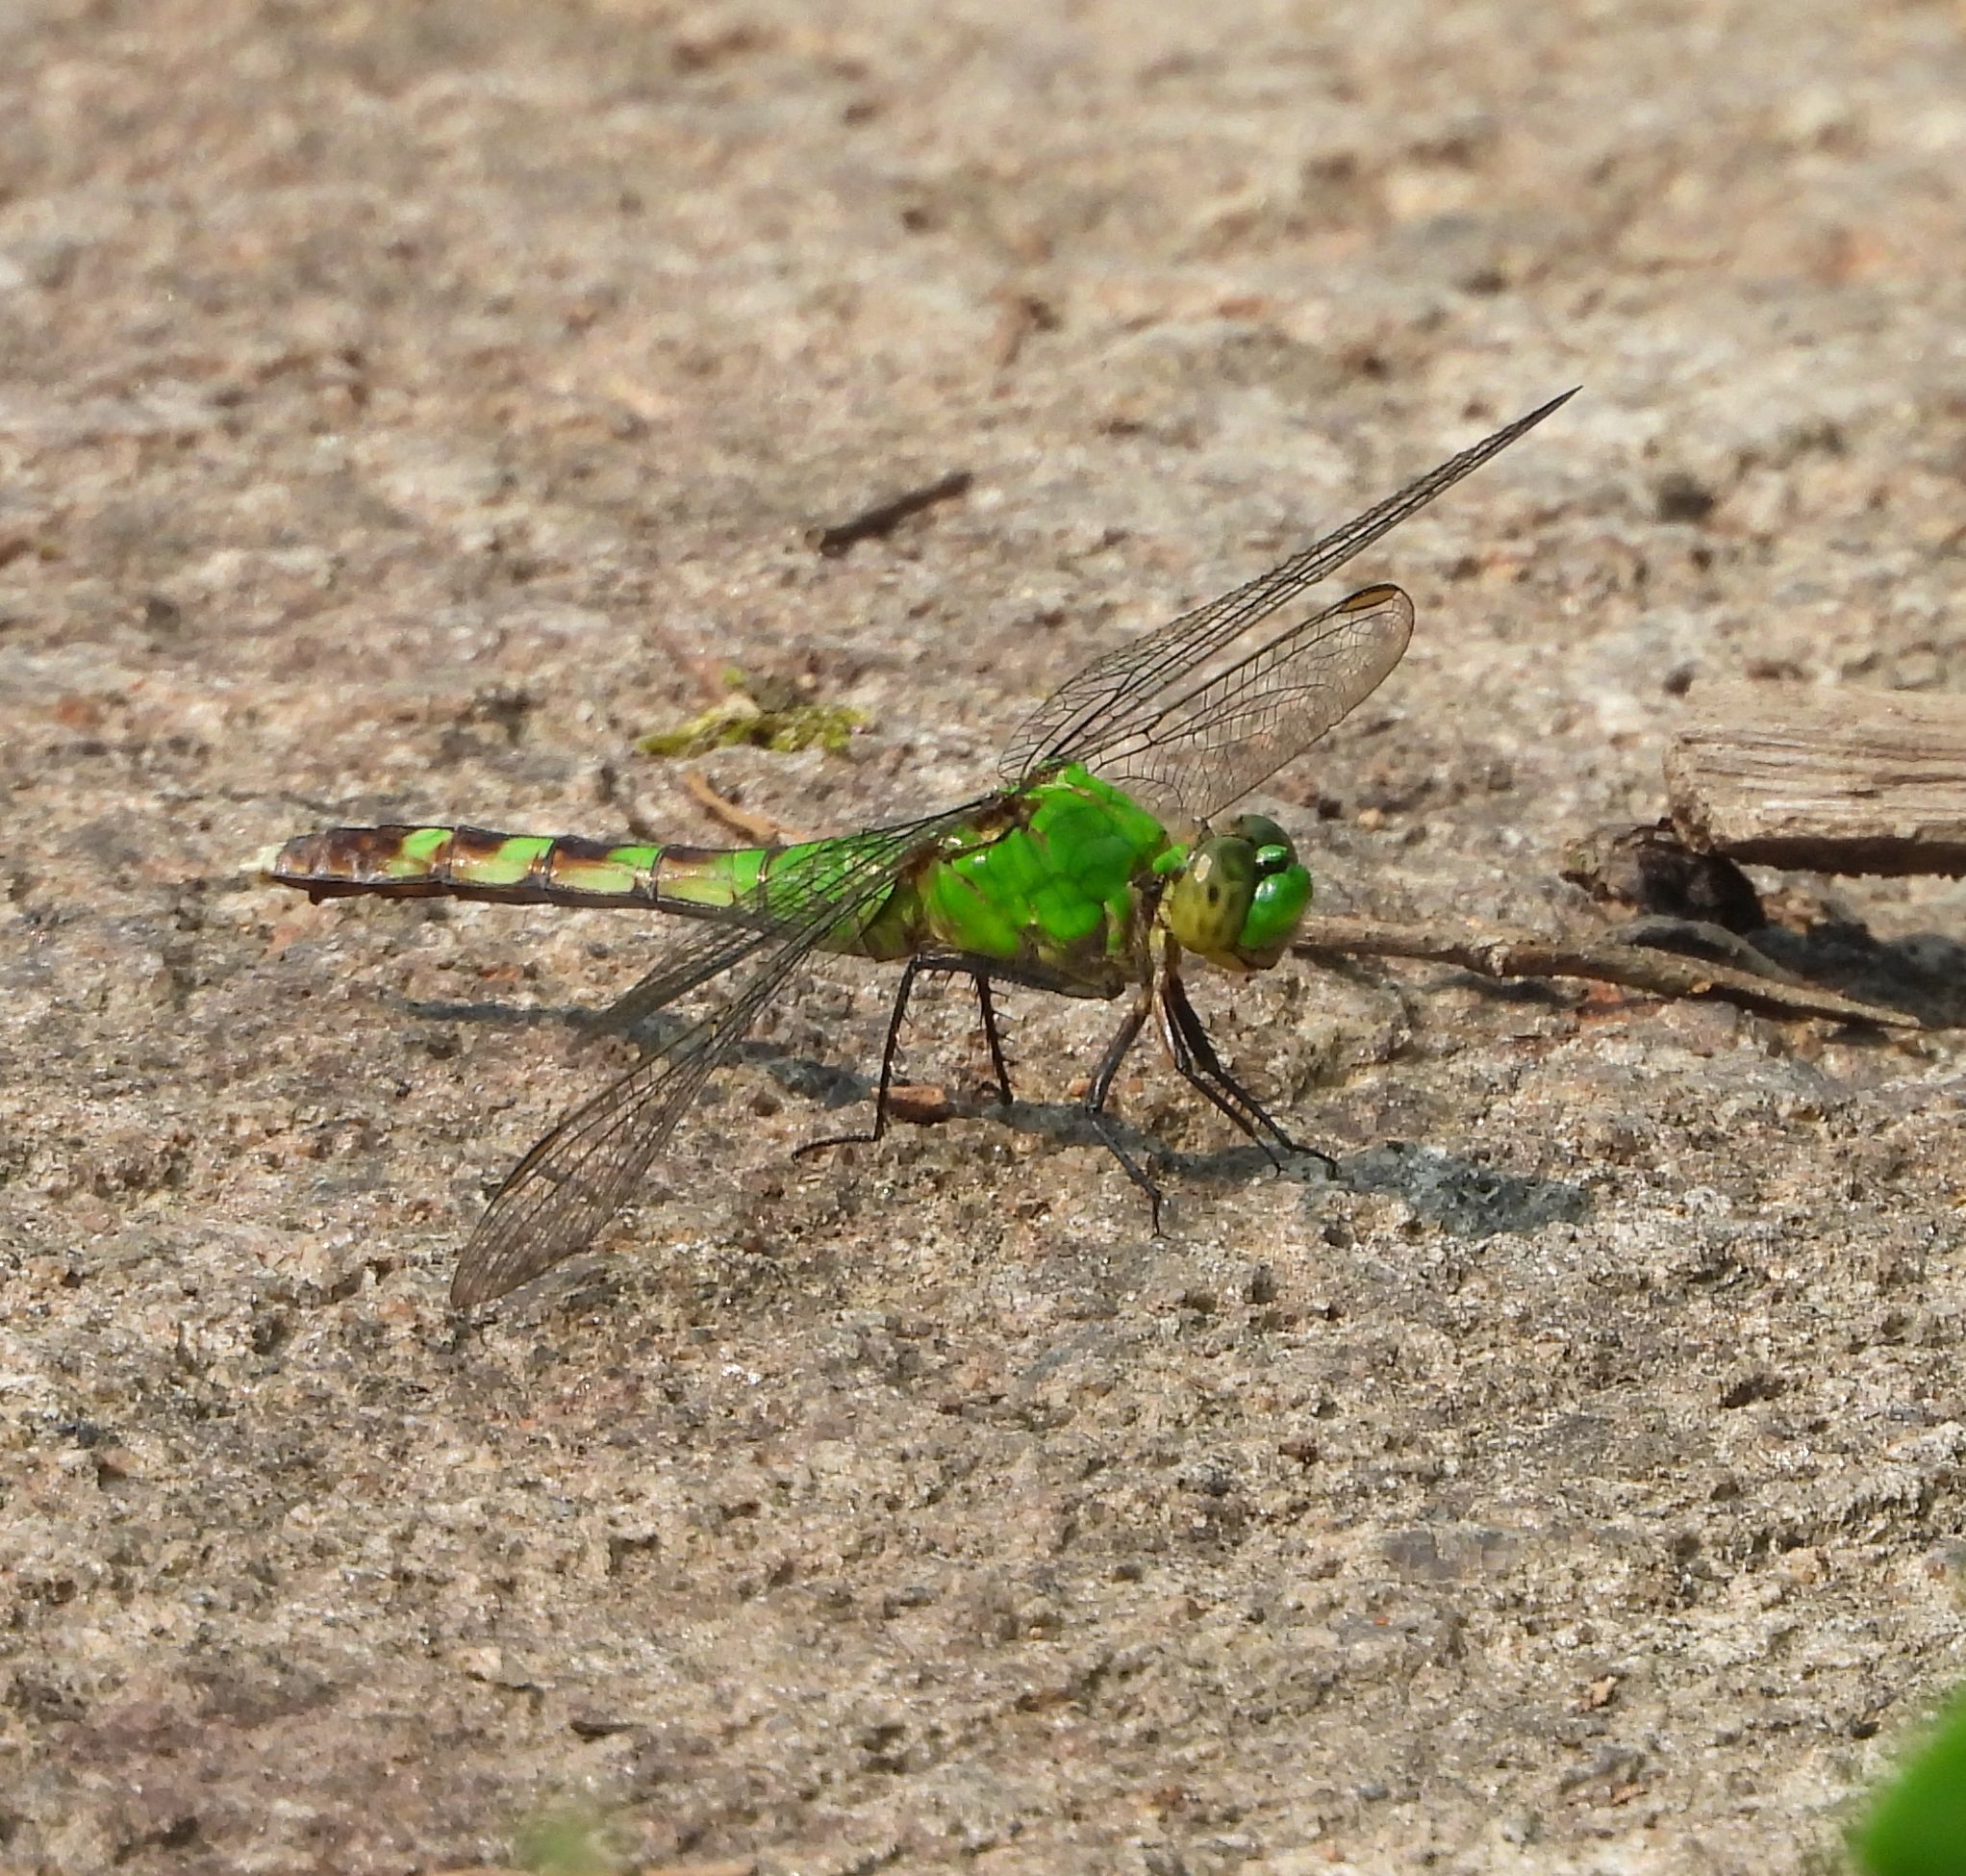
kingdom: Animalia
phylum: Arthropoda
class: Insecta
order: Odonata
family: Libellulidae
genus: Erythemis
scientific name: Erythemis simplicicollis
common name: Eastern pondhawk
